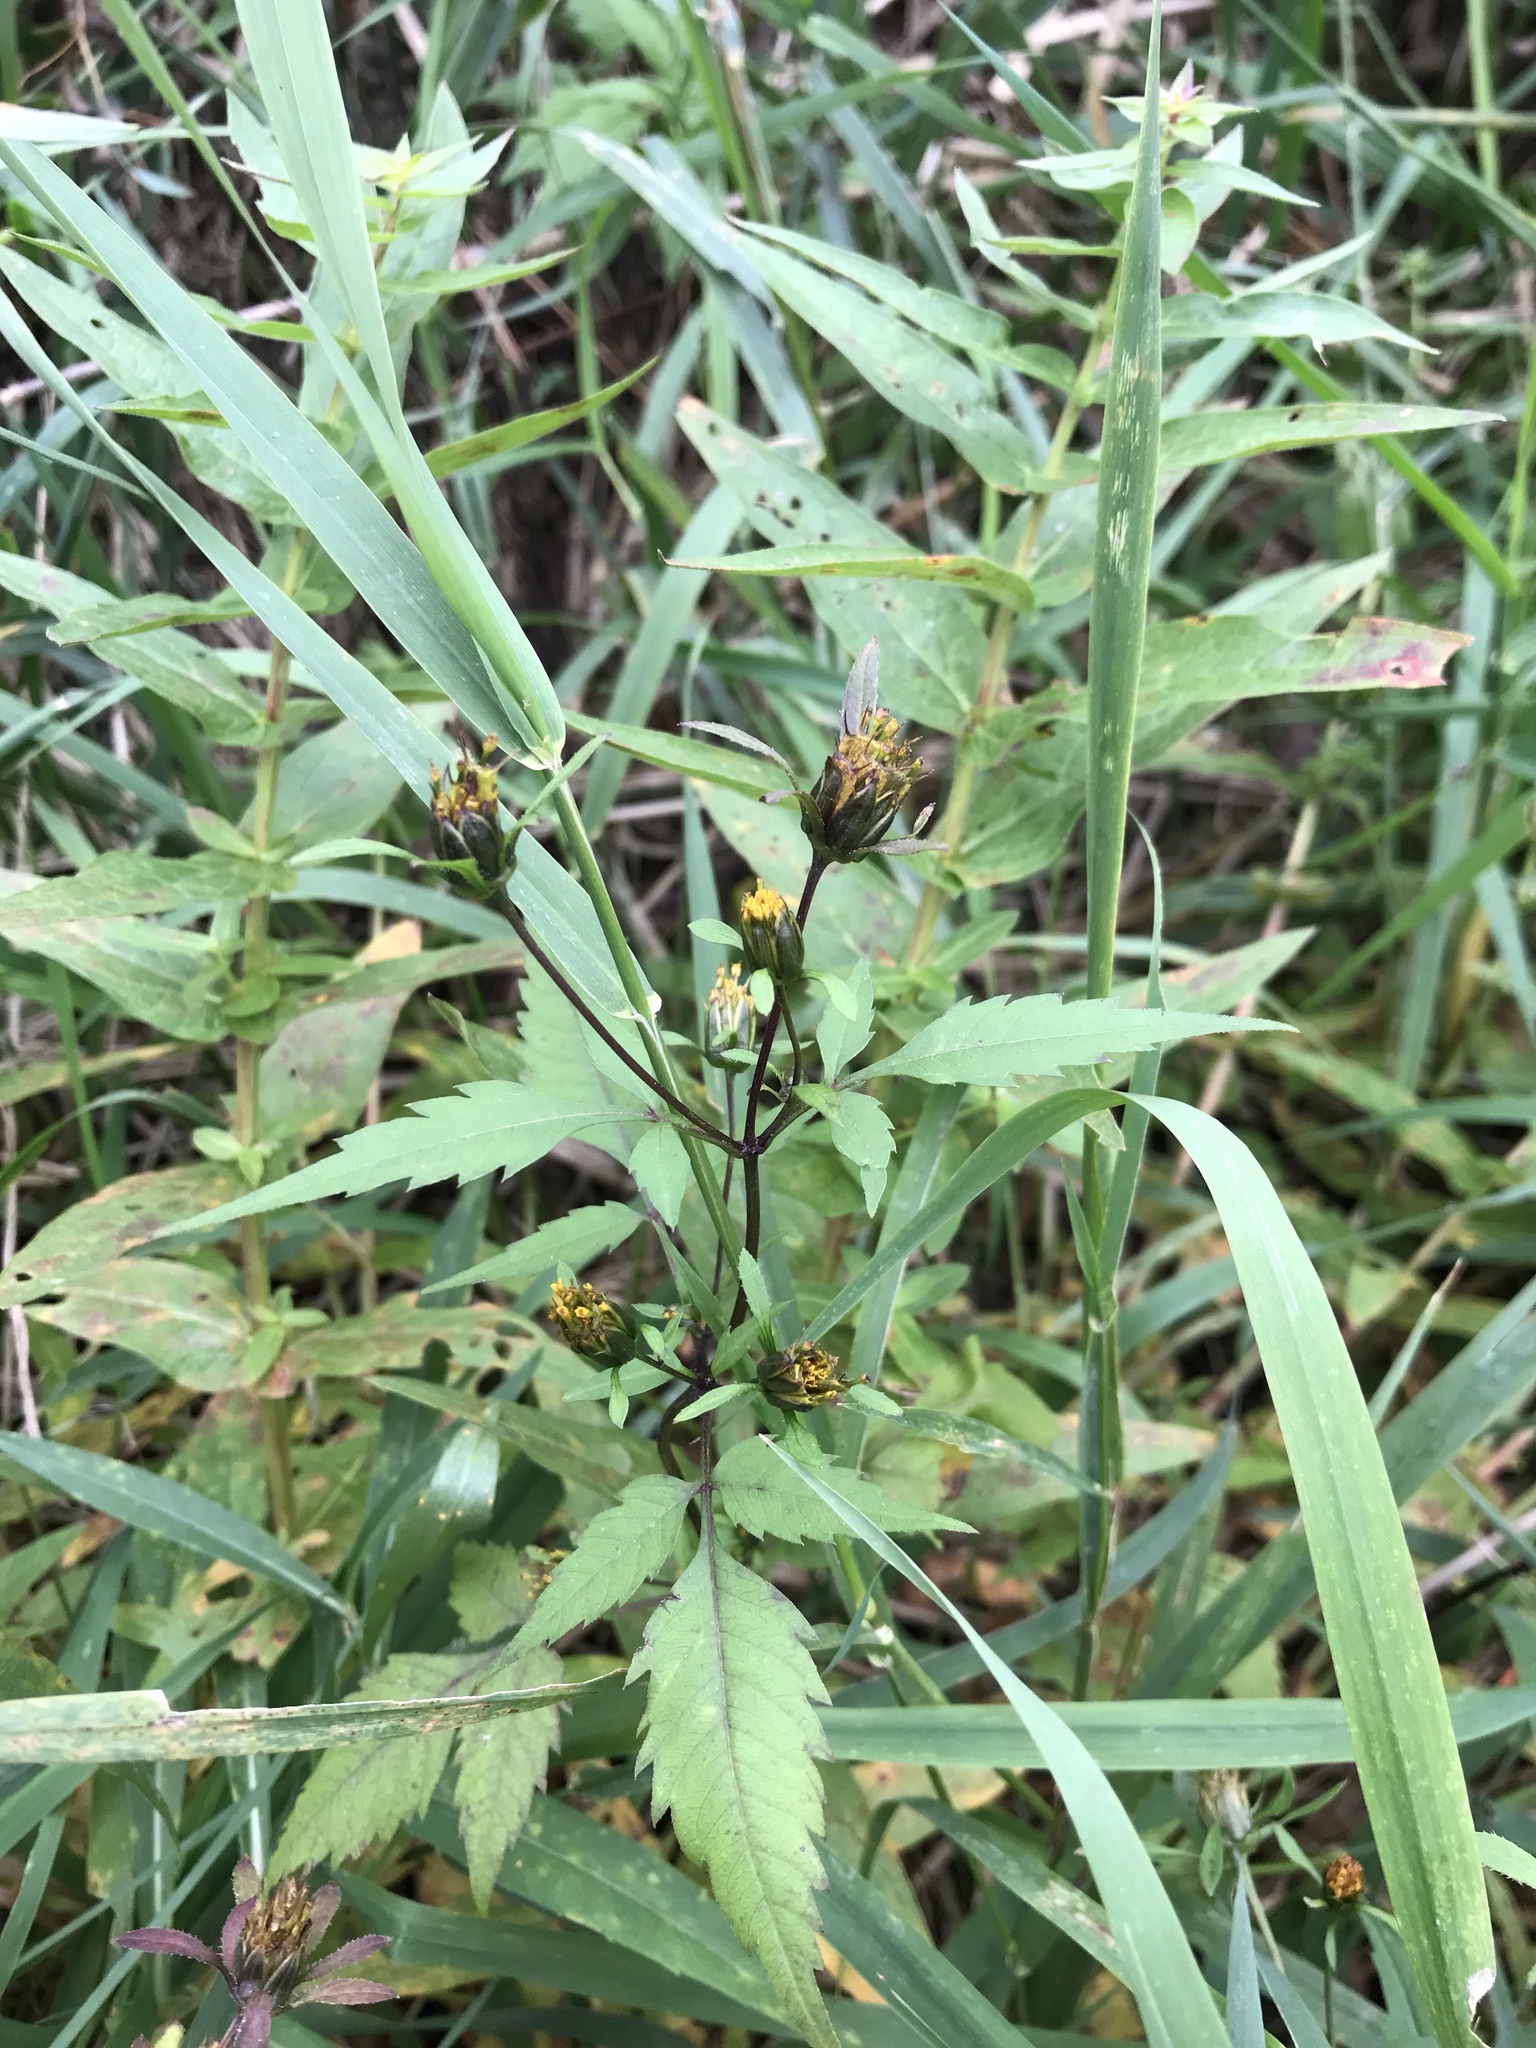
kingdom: Plantae
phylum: Tracheophyta
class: Magnoliopsida
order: Asterales
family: Asteraceae
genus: Bidens
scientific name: Bidens frondosa
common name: Beggarticks
